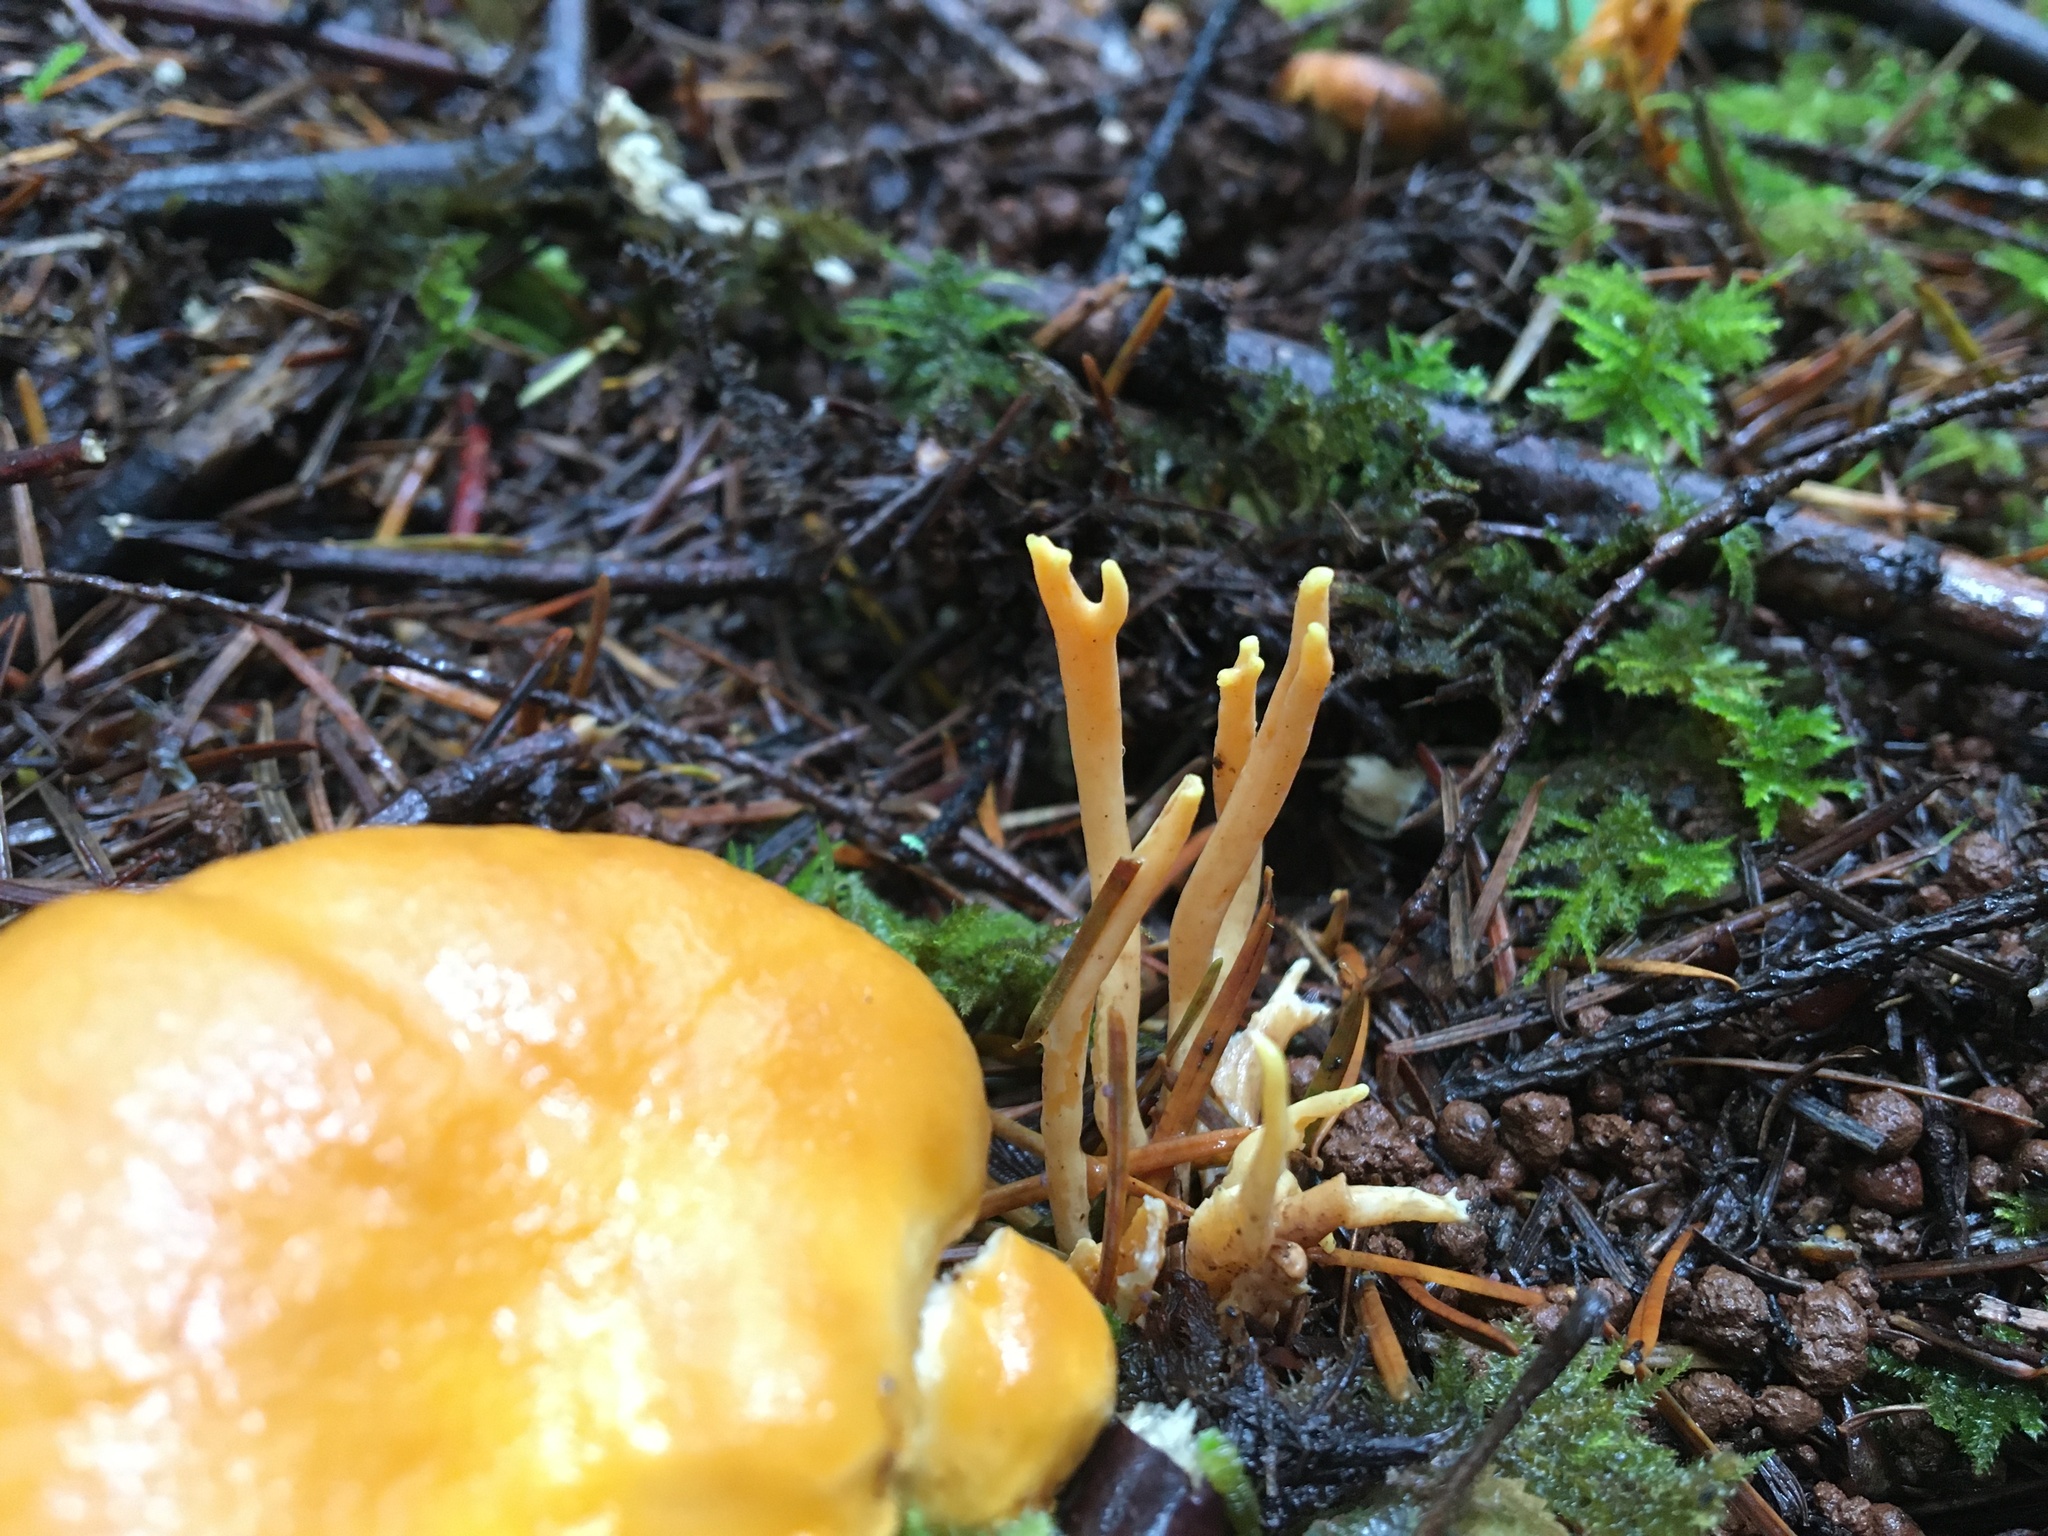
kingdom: Fungi
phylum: Basidiomycota
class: Agaricomycetes
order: Cantharellales
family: Hydnaceae
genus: Cantharellus
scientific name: Cantharellus formosus
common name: Pacific golden chanterelle
